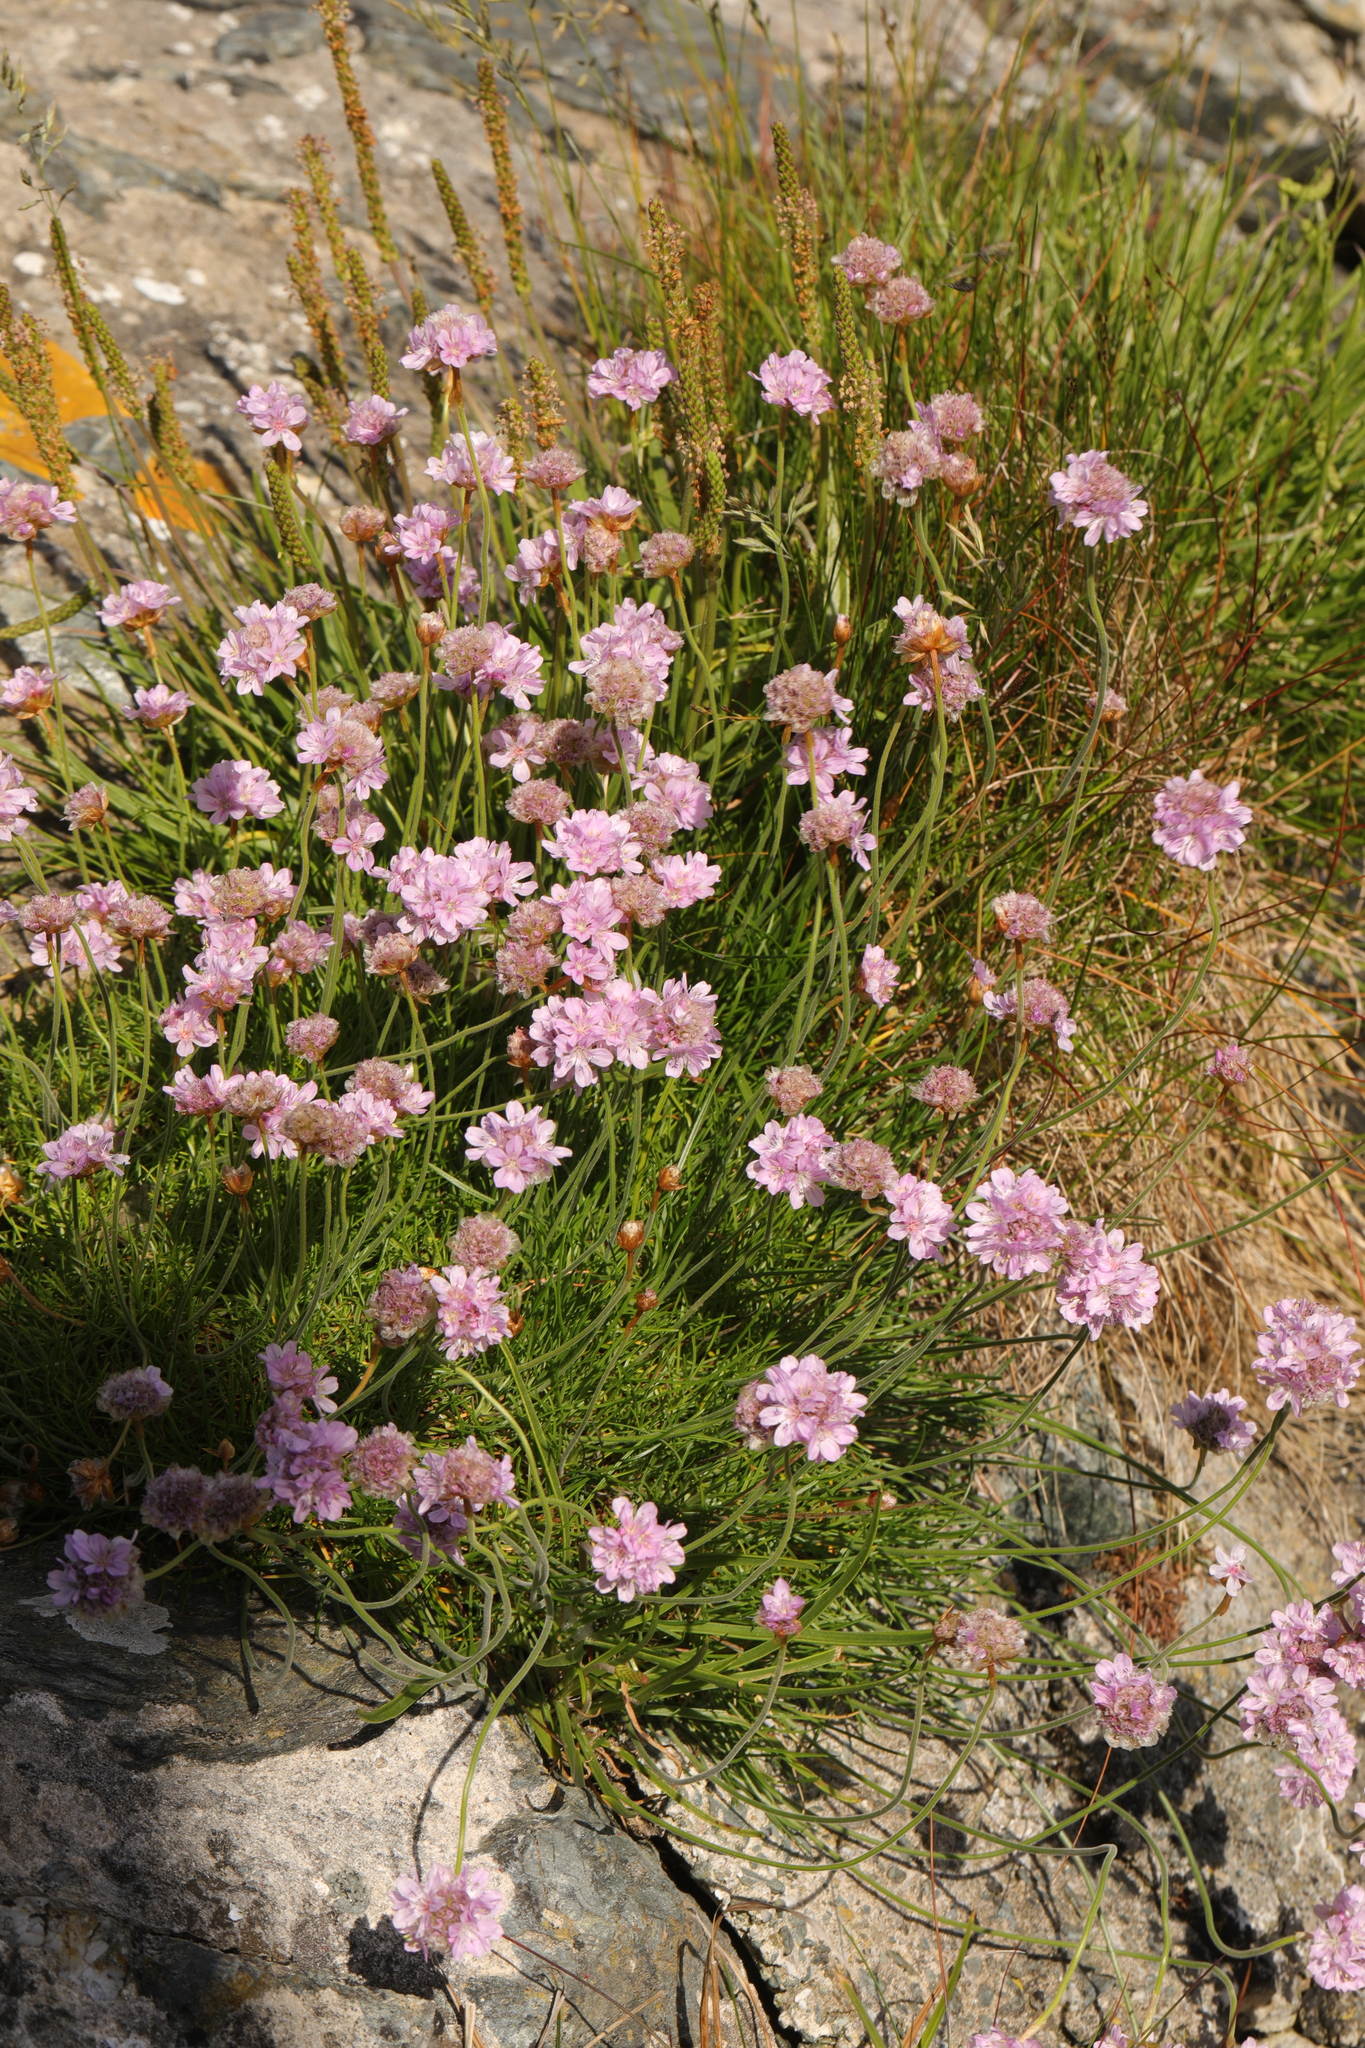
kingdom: Plantae
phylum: Tracheophyta
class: Magnoliopsida
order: Caryophyllales
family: Plumbaginaceae
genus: Armeria
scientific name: Armeria maritima
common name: Thrift
